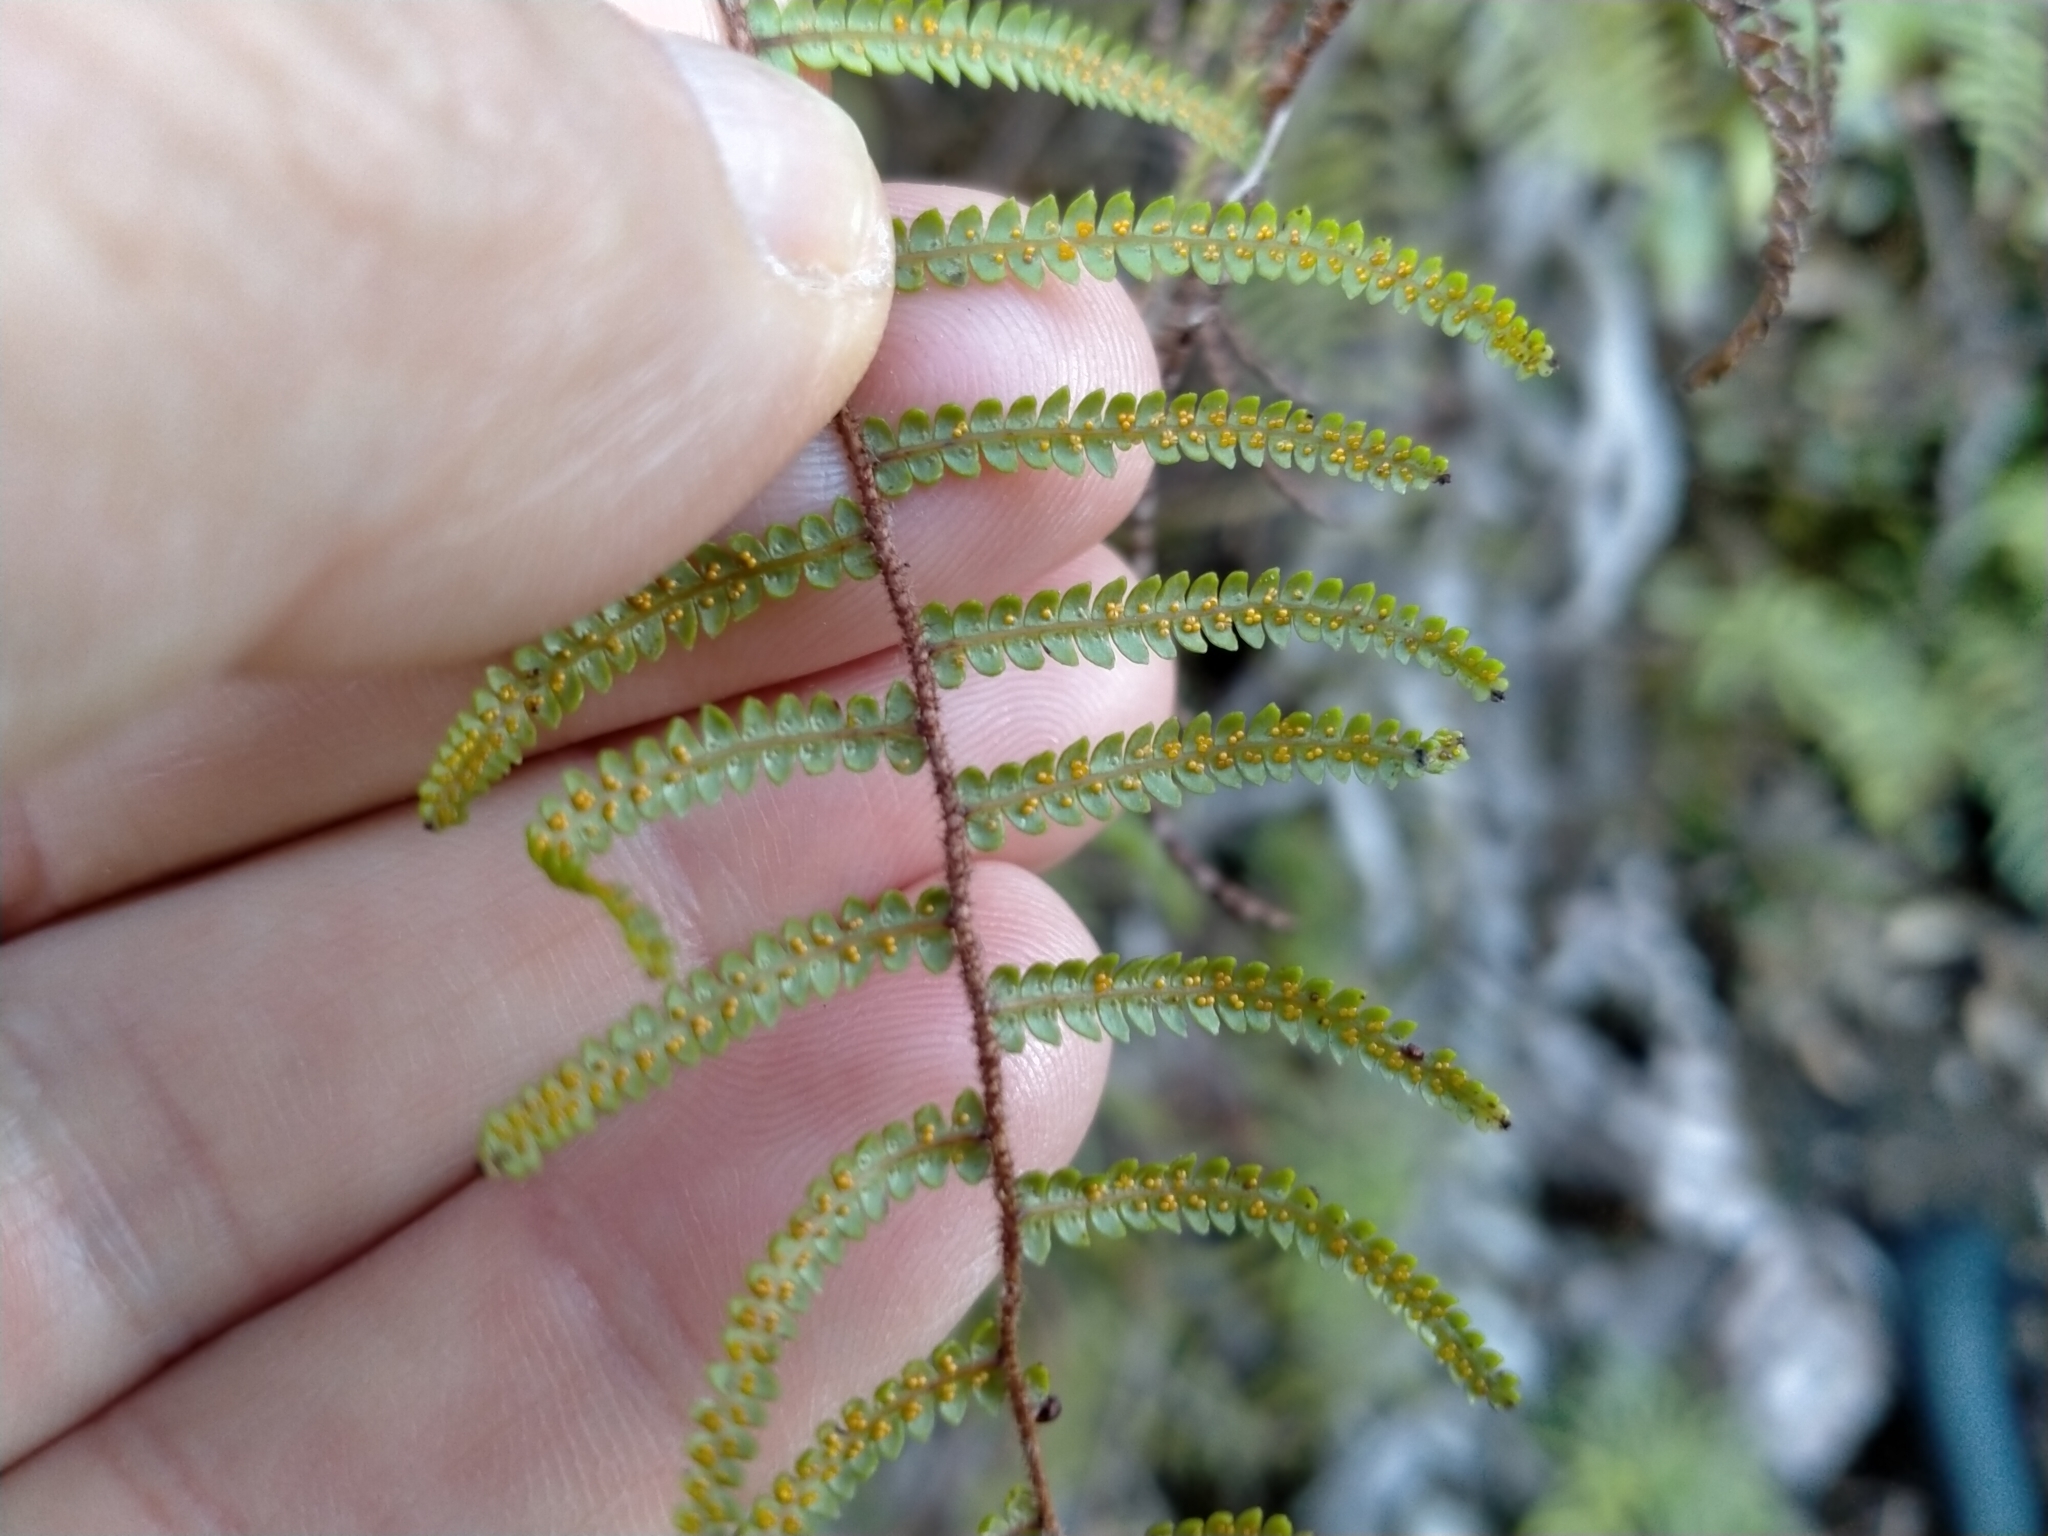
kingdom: Plantae
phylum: Tracheophyta
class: Polypodiopsida
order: Gleicheniales
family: Gleicheniaceae
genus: Gleichenia
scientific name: Gleichenia microphylla
